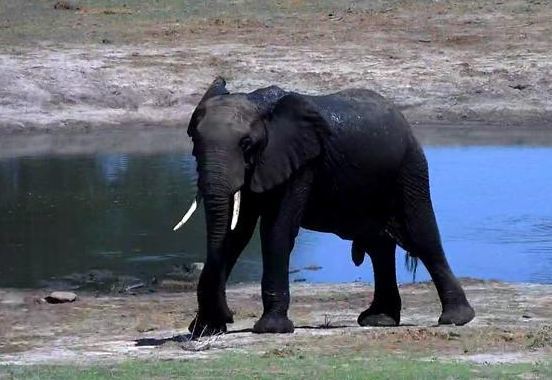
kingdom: Animalia
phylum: Chordata
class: Mammalia
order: Proboscidea
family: Elephantidae
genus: Loxodonta
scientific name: Loxodonta africana
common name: African elephant
